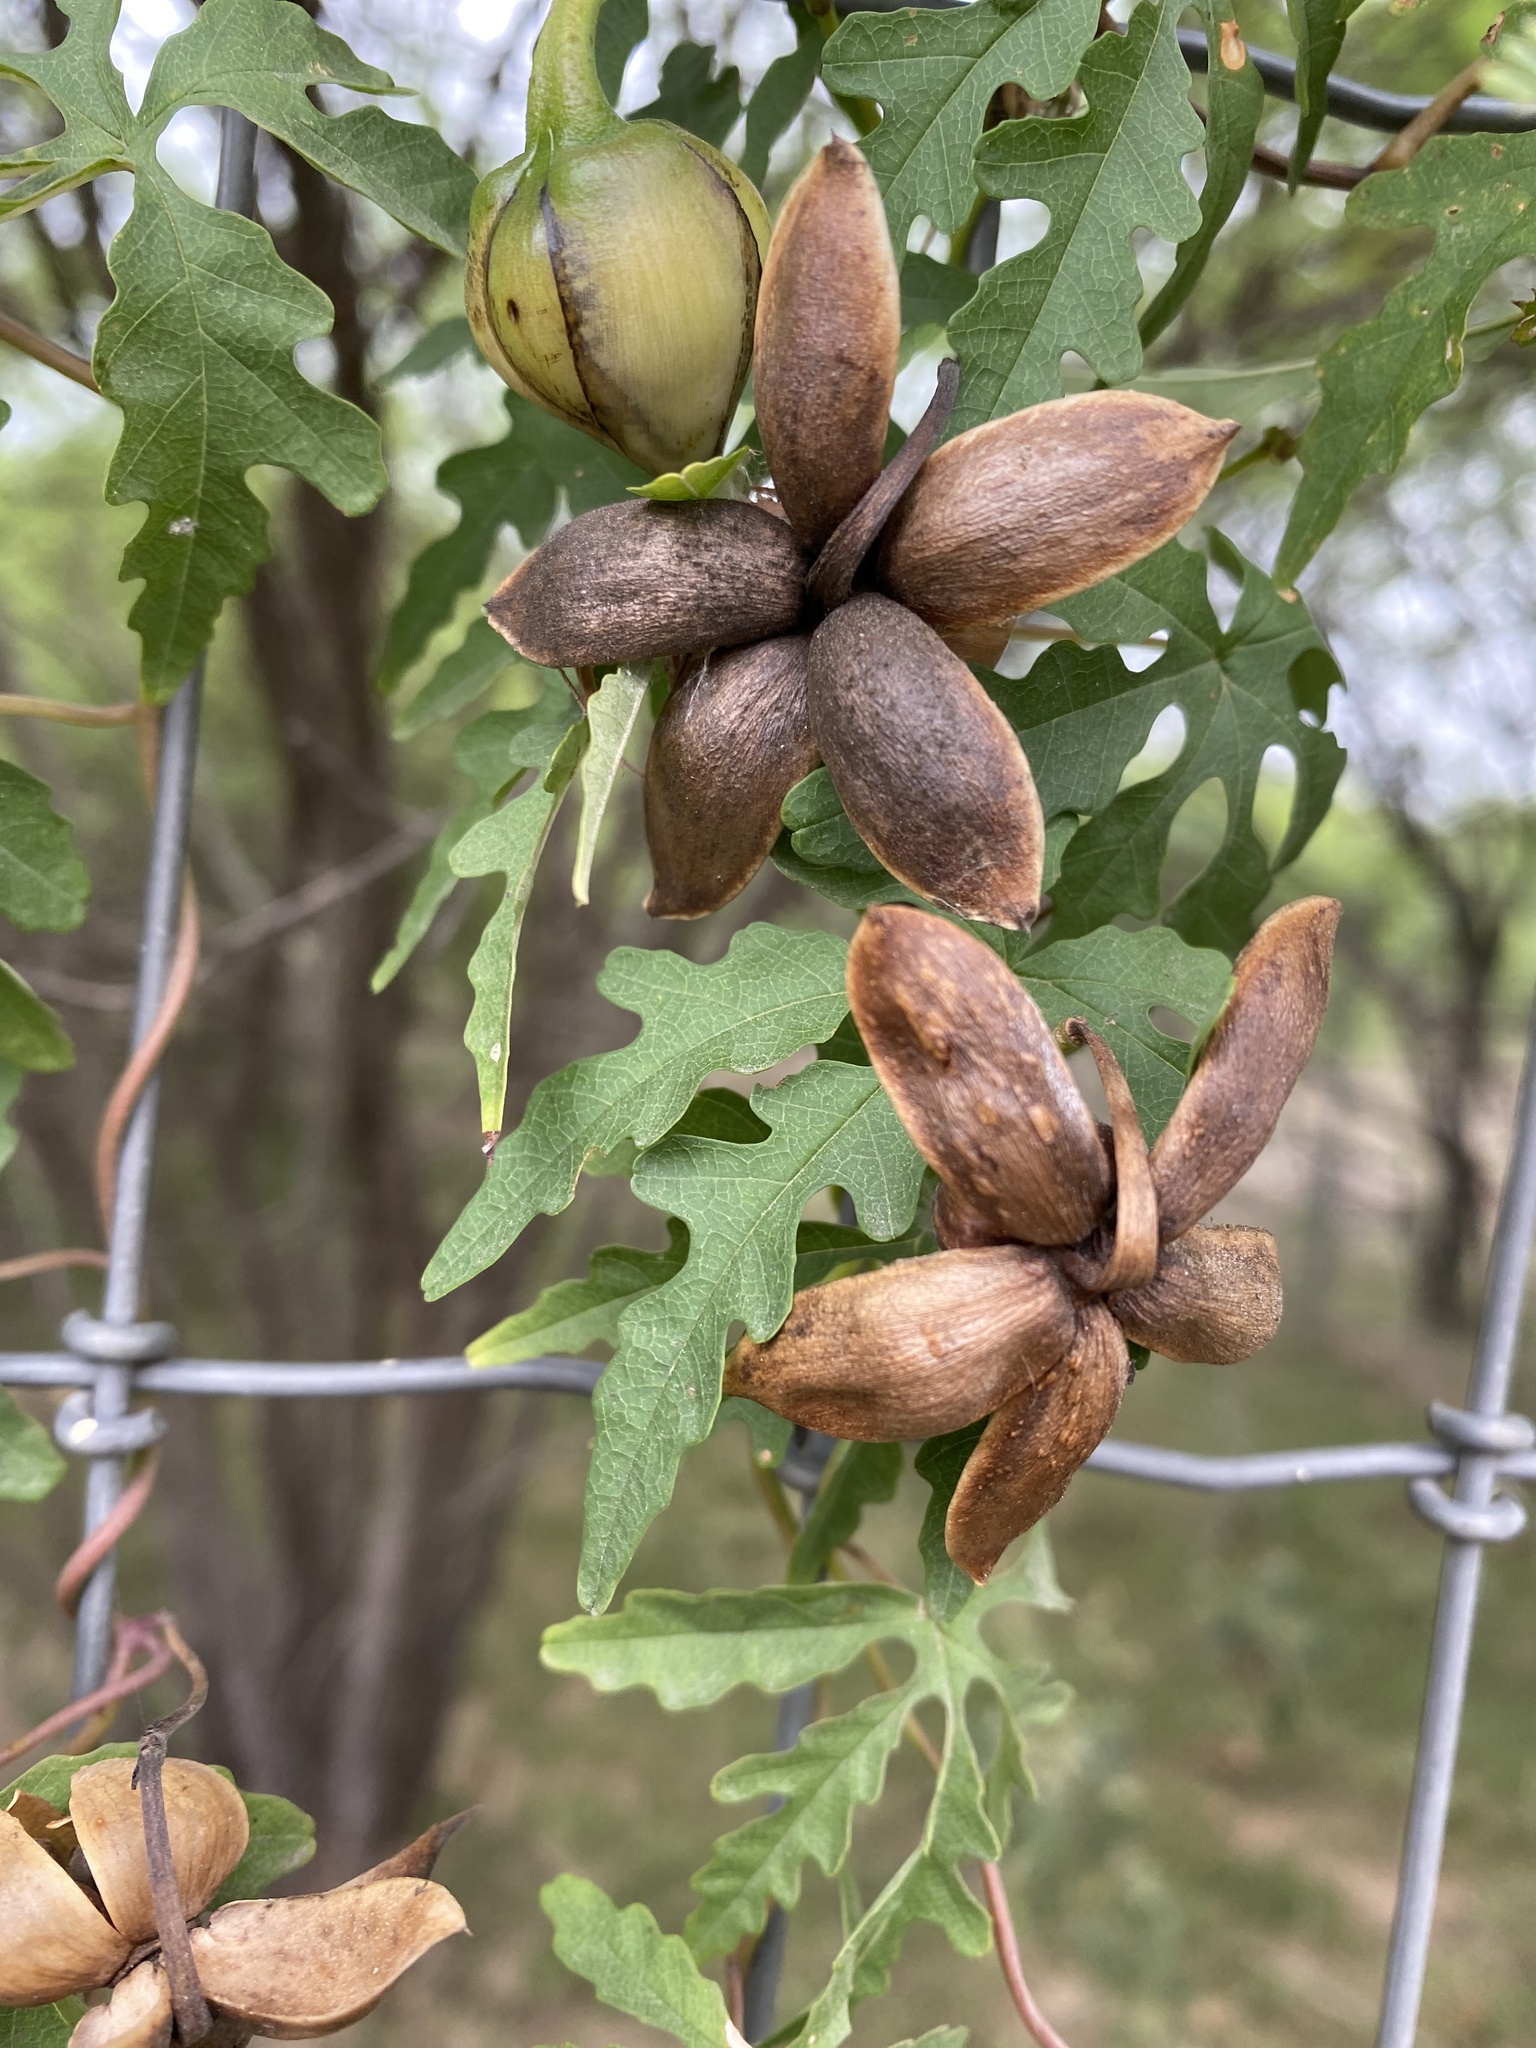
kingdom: Plantae
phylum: Tracheophyta
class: Magnoliopsida
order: Solanales
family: Convolvulaceae
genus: Distimake
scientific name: Distimake dissectus
